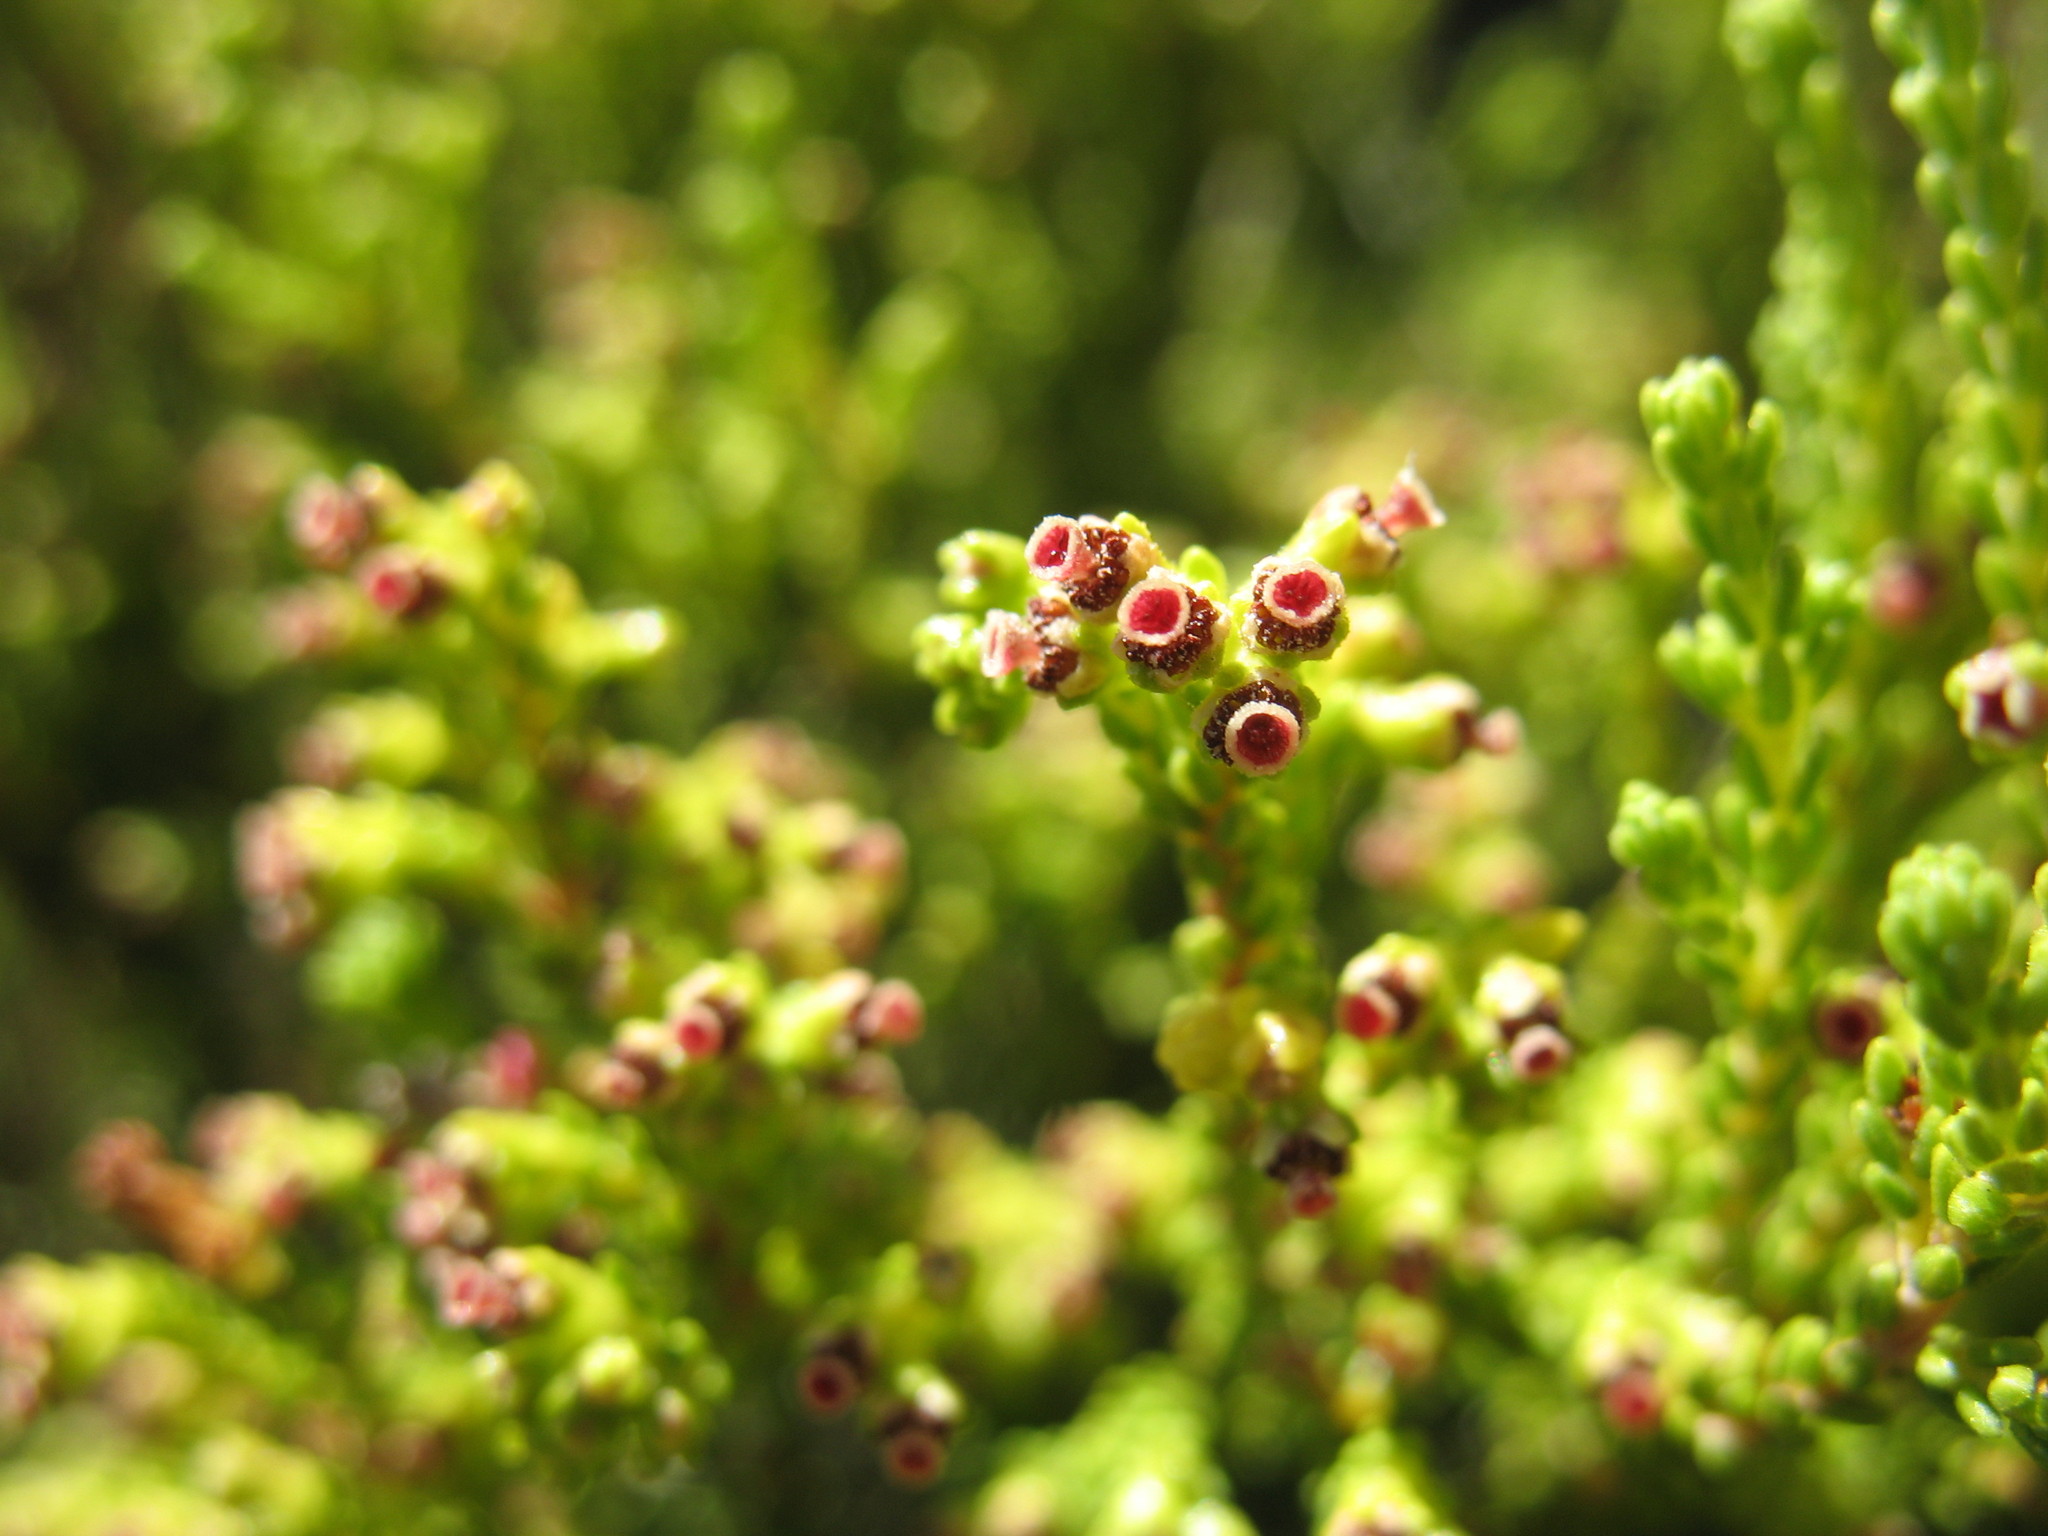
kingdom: Plantae
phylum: Tracheophyta
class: Magnoliopsida
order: Ericales
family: Ericaceae
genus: Erica
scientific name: Erica tristis
